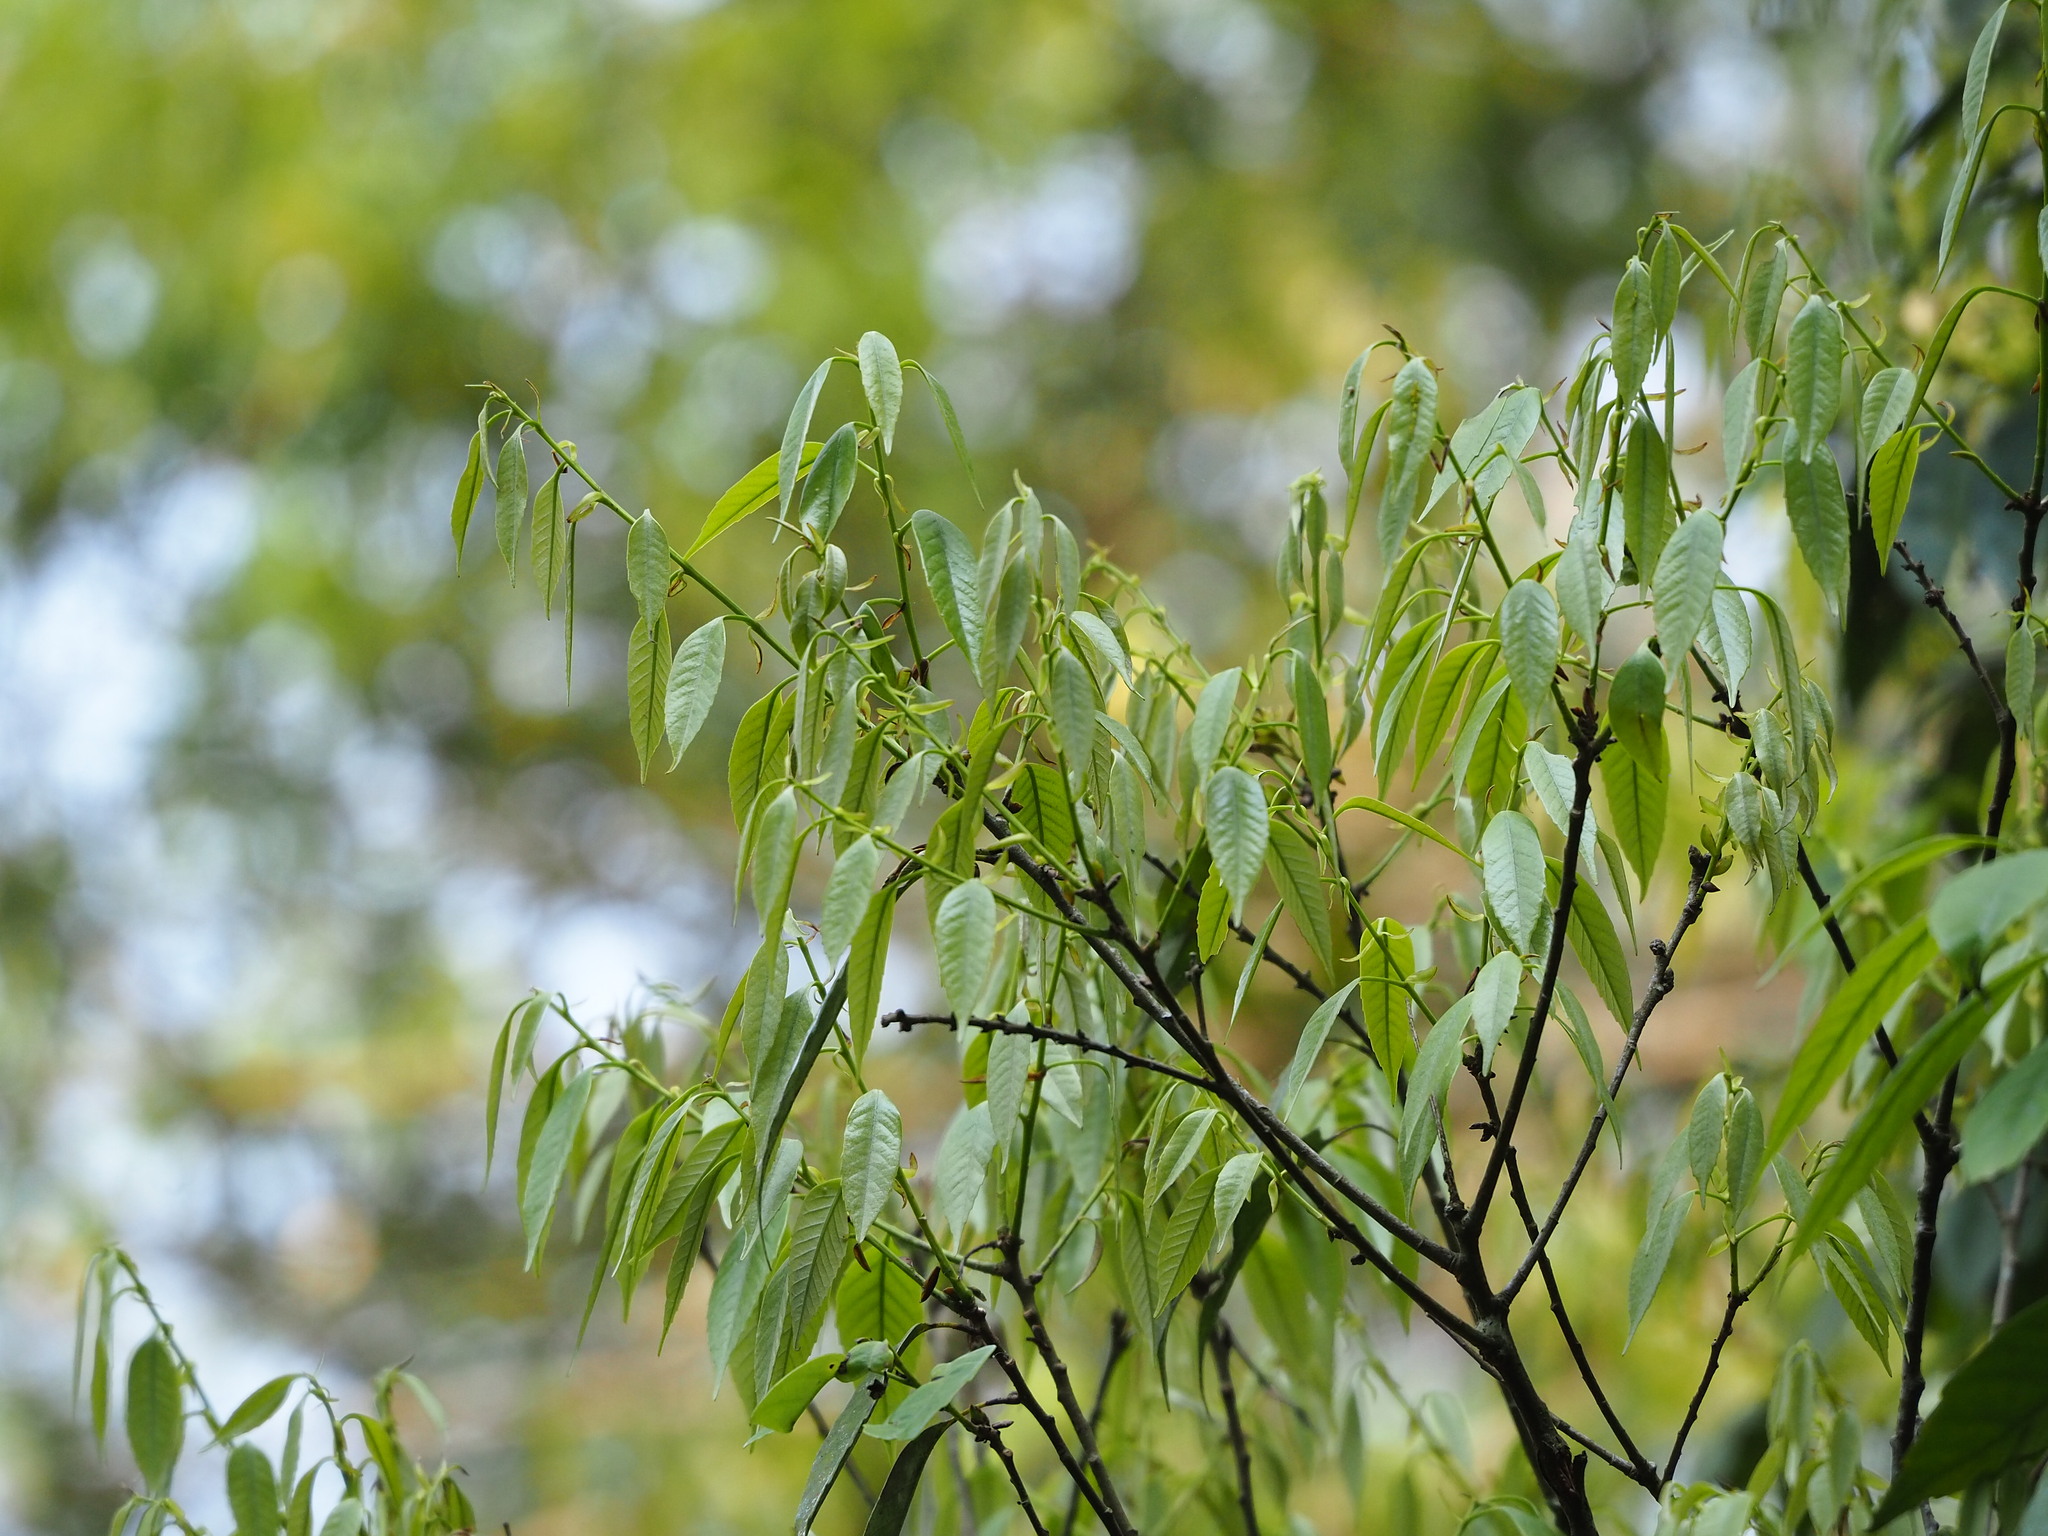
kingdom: Plantae
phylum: Tracheophyta
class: Magnoliopsida
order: Fagales
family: Fagaceae
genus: Quercus
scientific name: Quercus glauca
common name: Ring-cup oak
